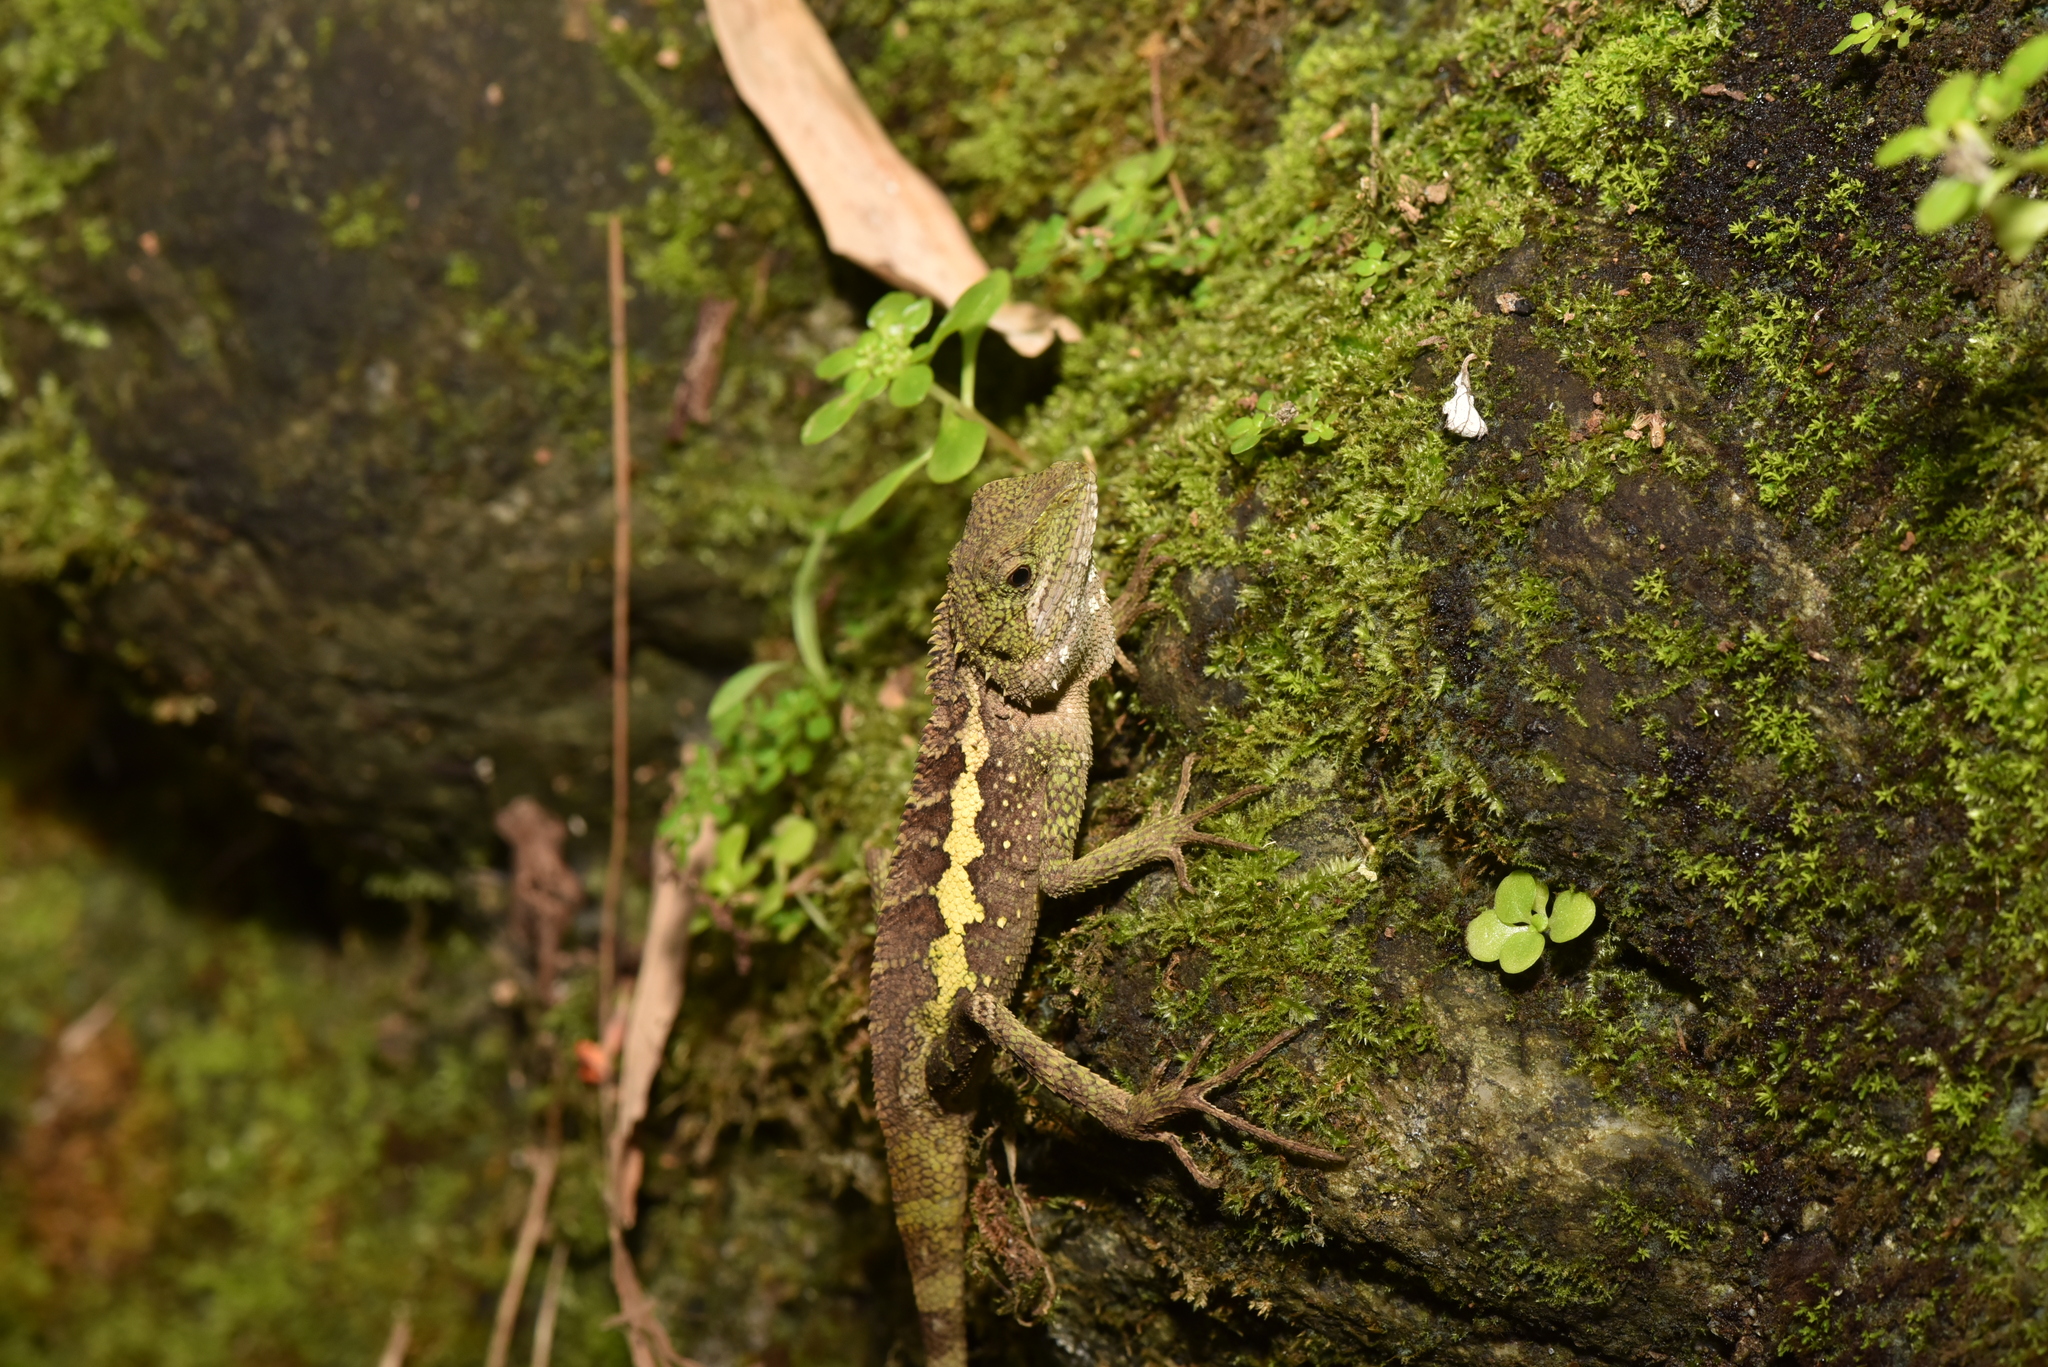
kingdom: Animalia
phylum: Chordata
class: Squamata
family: Agamidae
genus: Diploderma
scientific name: Diploderma swinhonis
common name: Taiwan japalure
